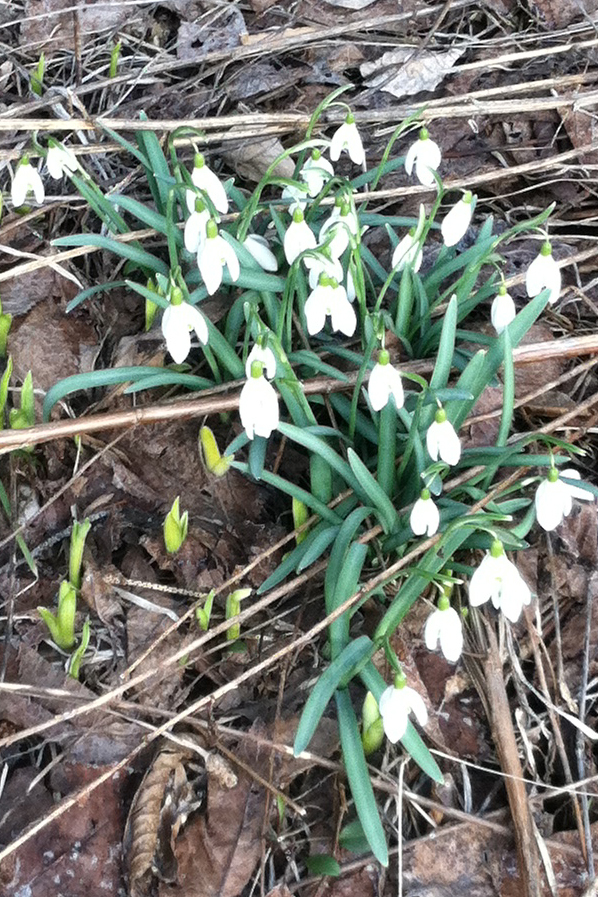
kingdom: Plantae
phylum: Tracheophyta
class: Liliopsida
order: Asparagales
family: Amaryllidaceae
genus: Galanthus
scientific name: Galanthus nivalis
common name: Snowdrop
